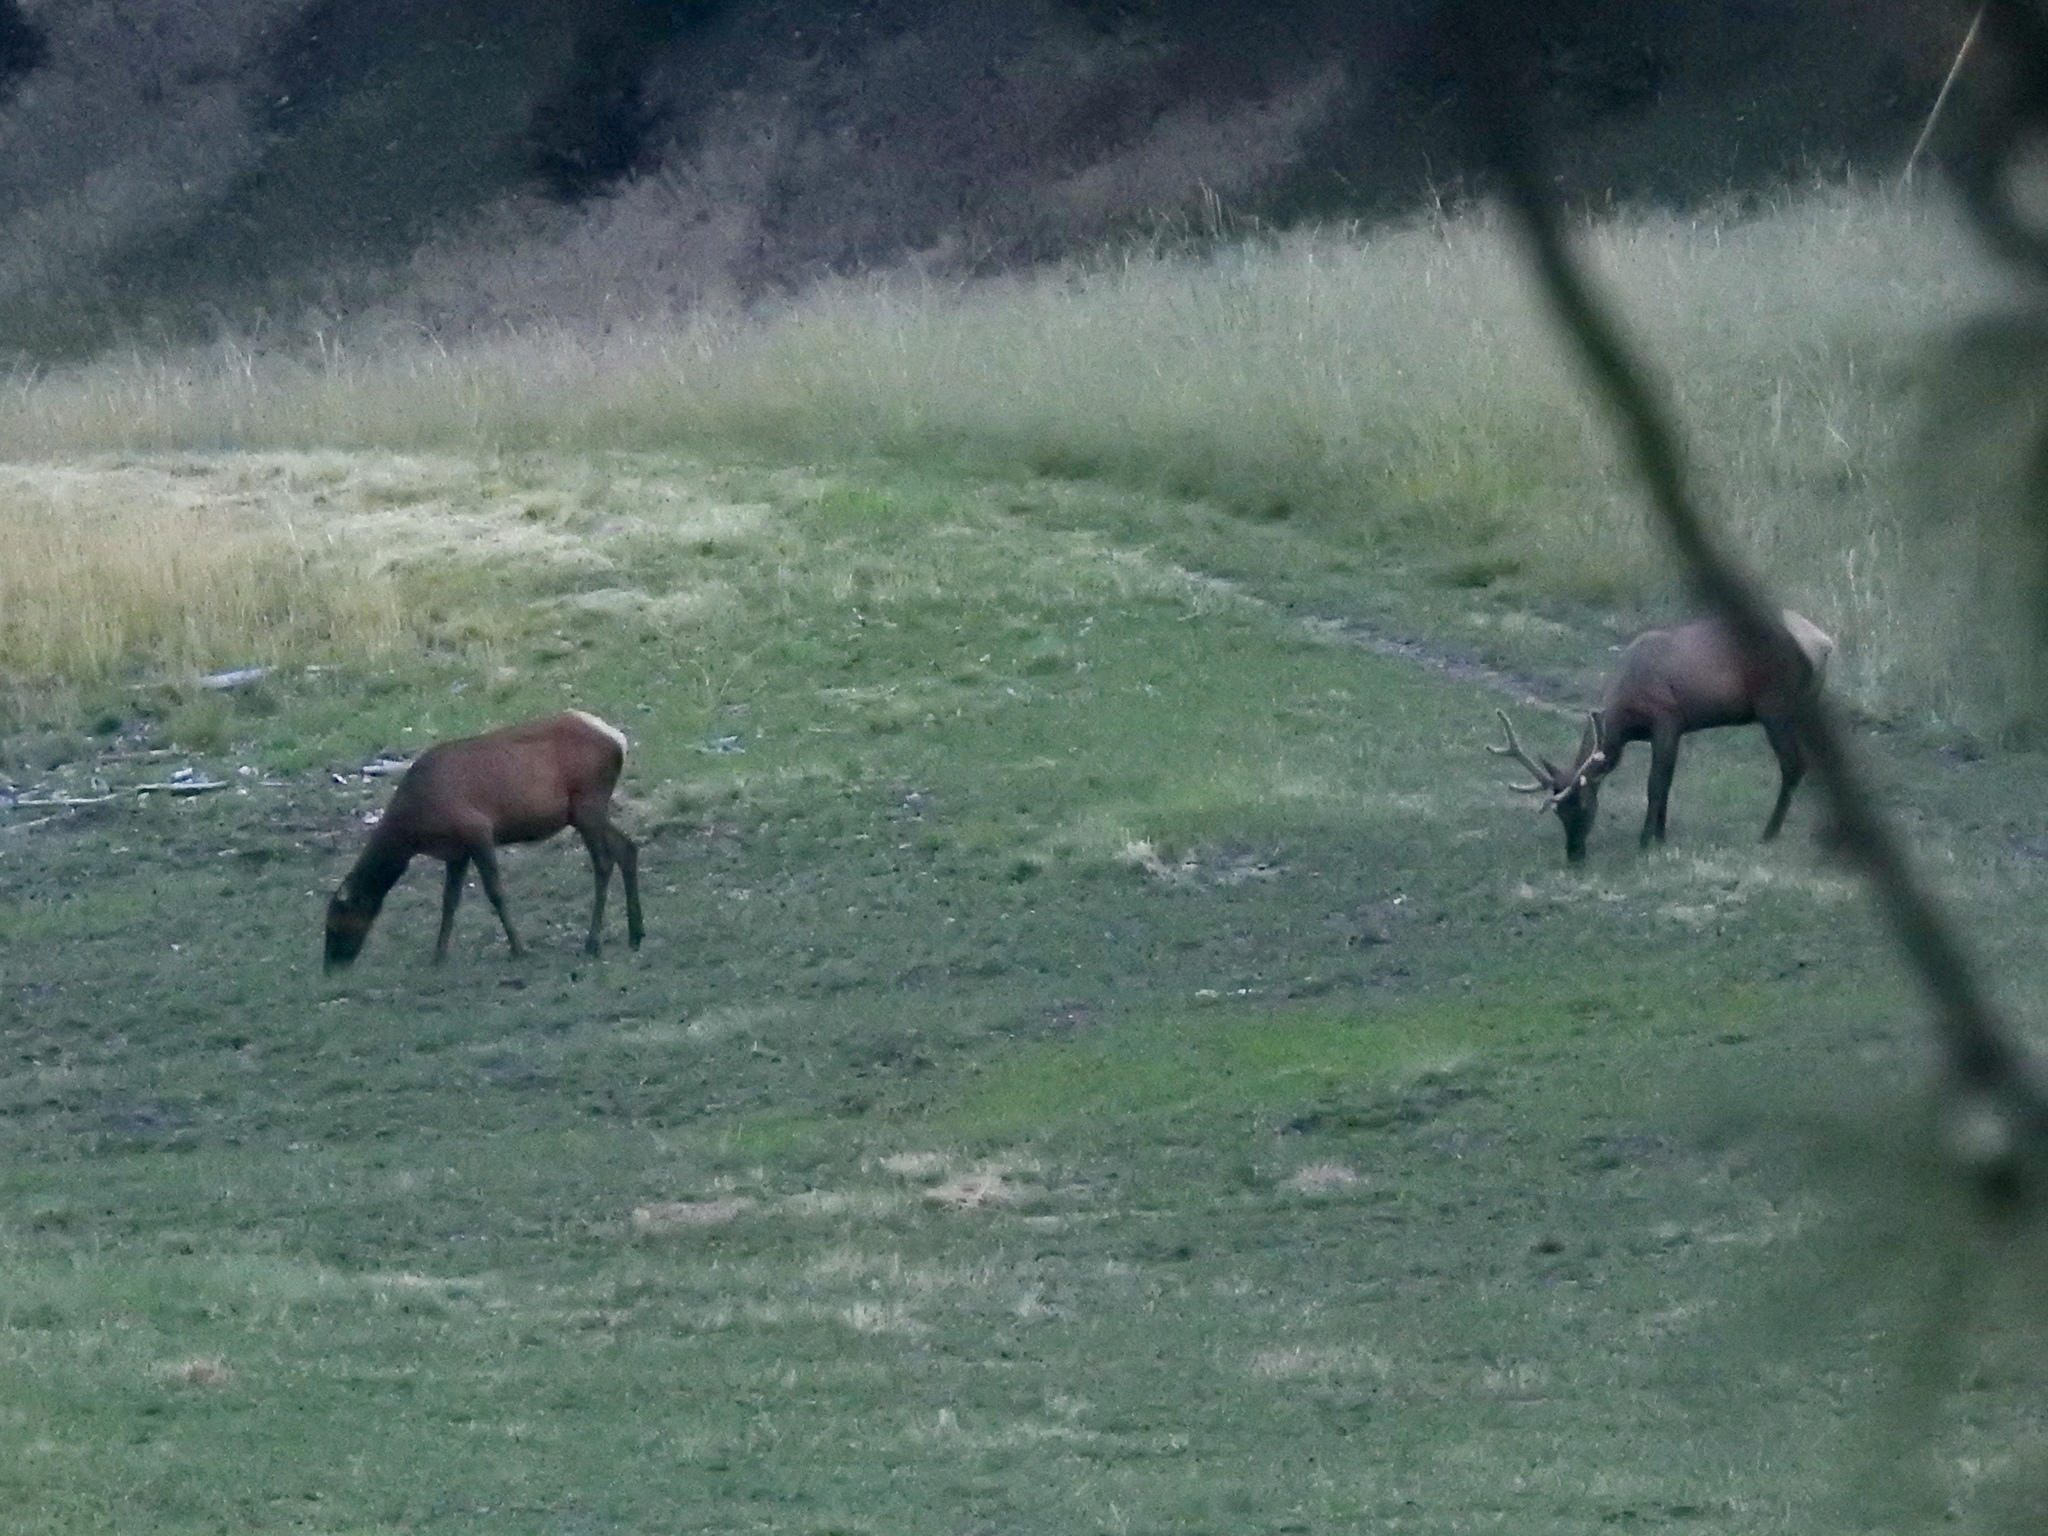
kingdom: Animalia
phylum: Chordata
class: Mammalia
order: Artiodactyla
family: Cervidae
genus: Cervus
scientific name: Cervus elaphus
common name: Red deer
